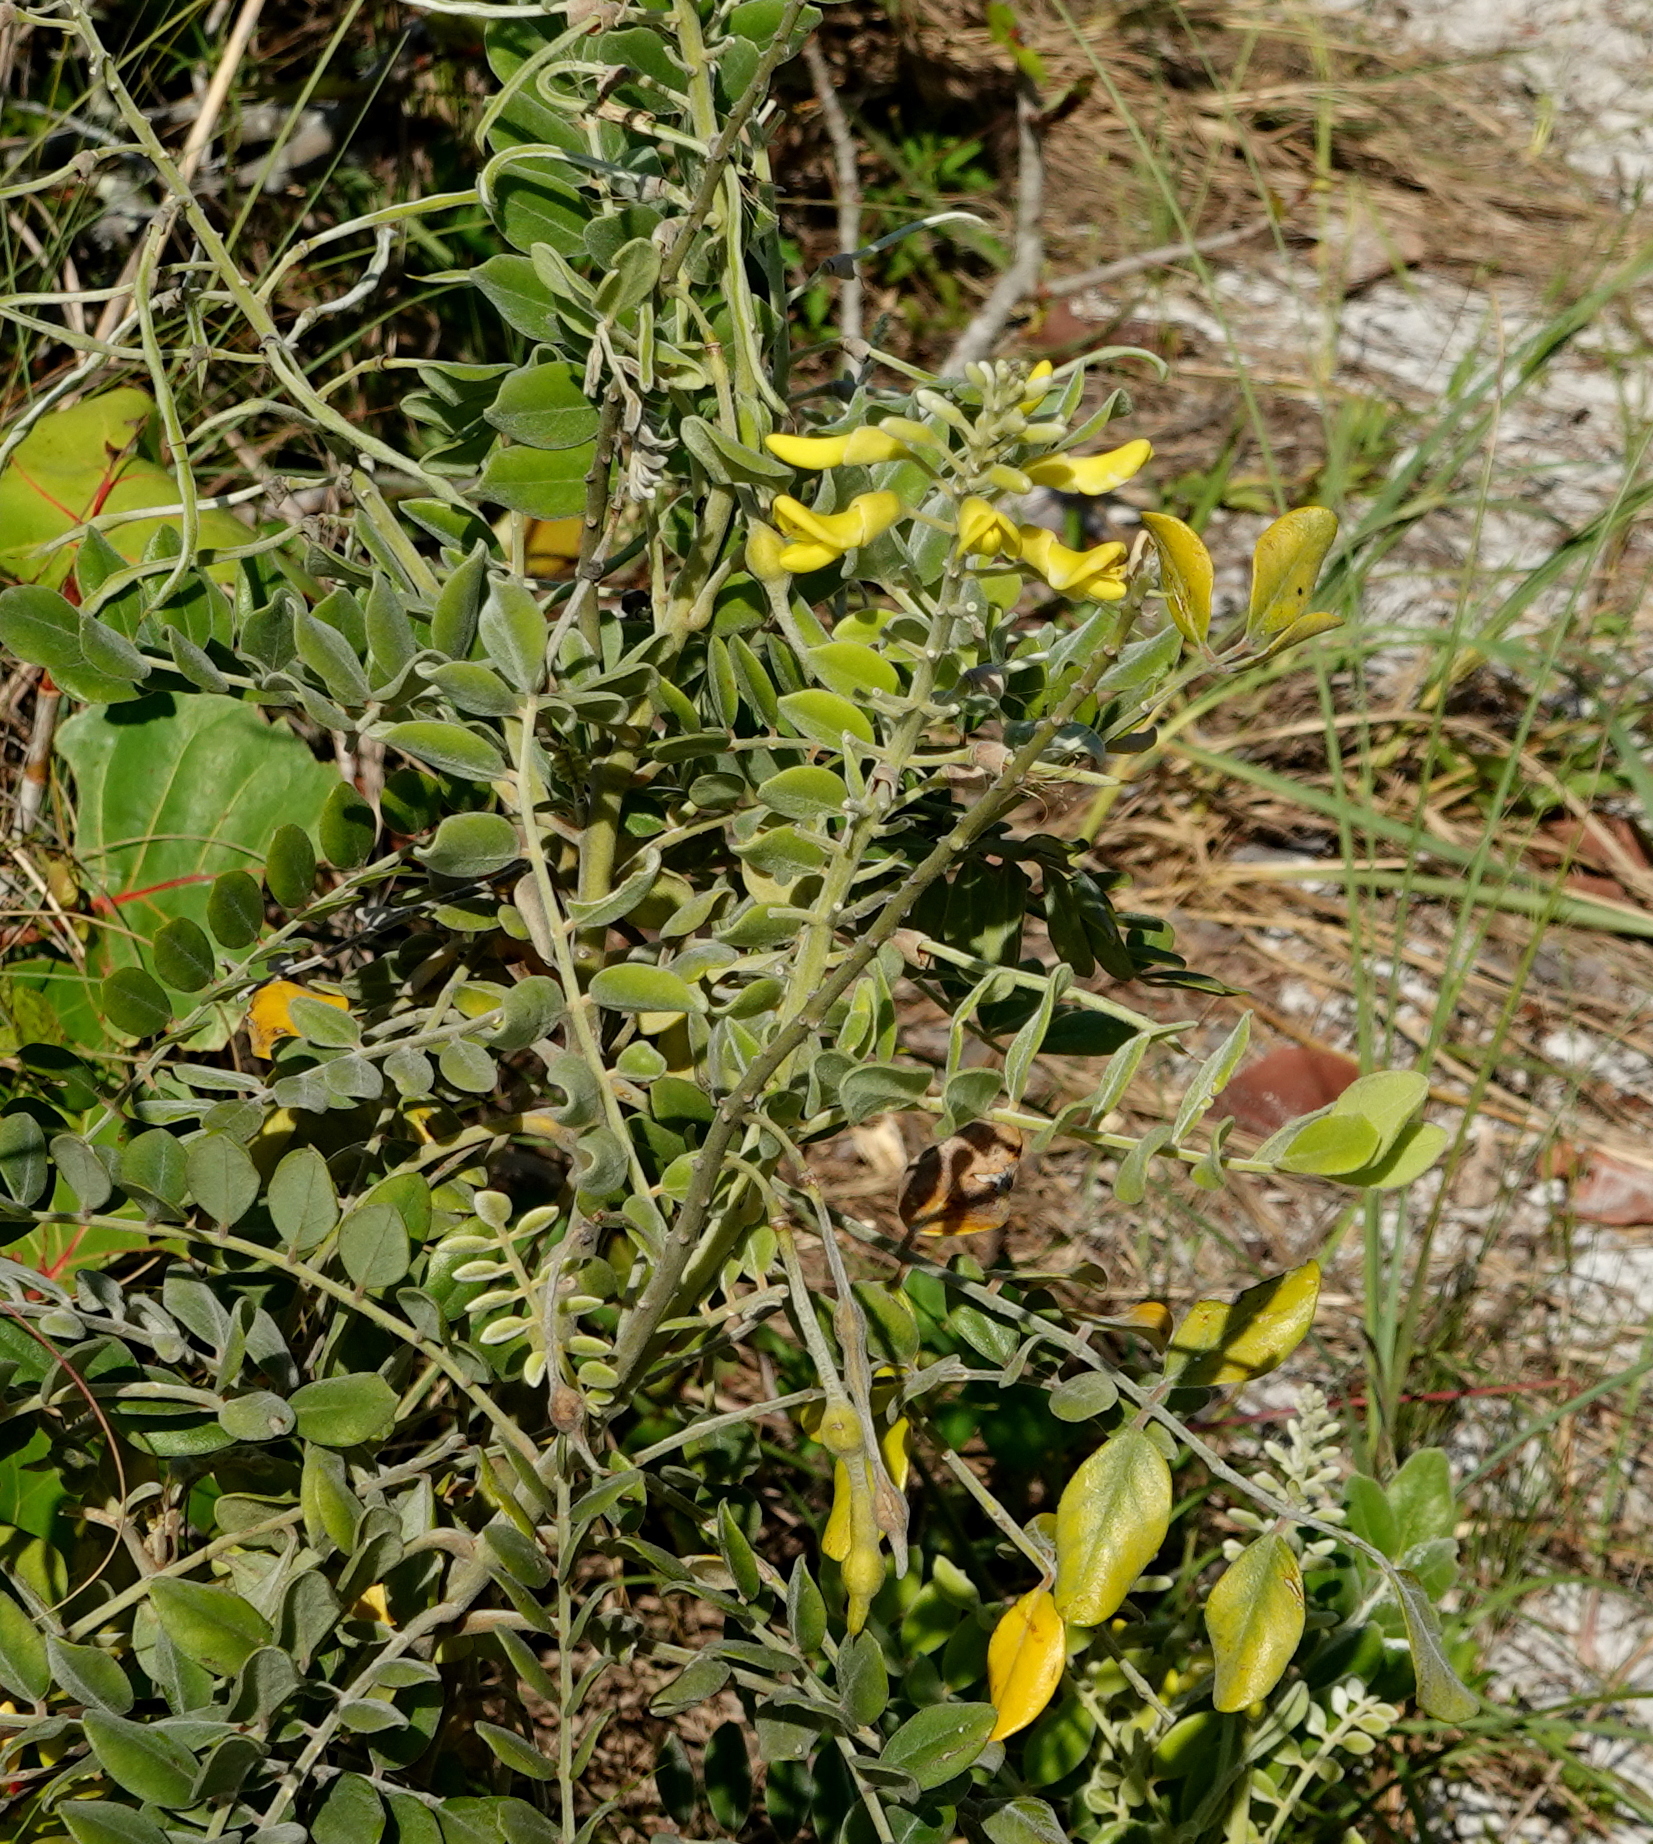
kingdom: Plantae
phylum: Tracheophyta
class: Magnoliopsida
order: Fabales
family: Fabaceae
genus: Sophora
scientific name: Sophora tomentosa
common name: Yellow necklacepod
